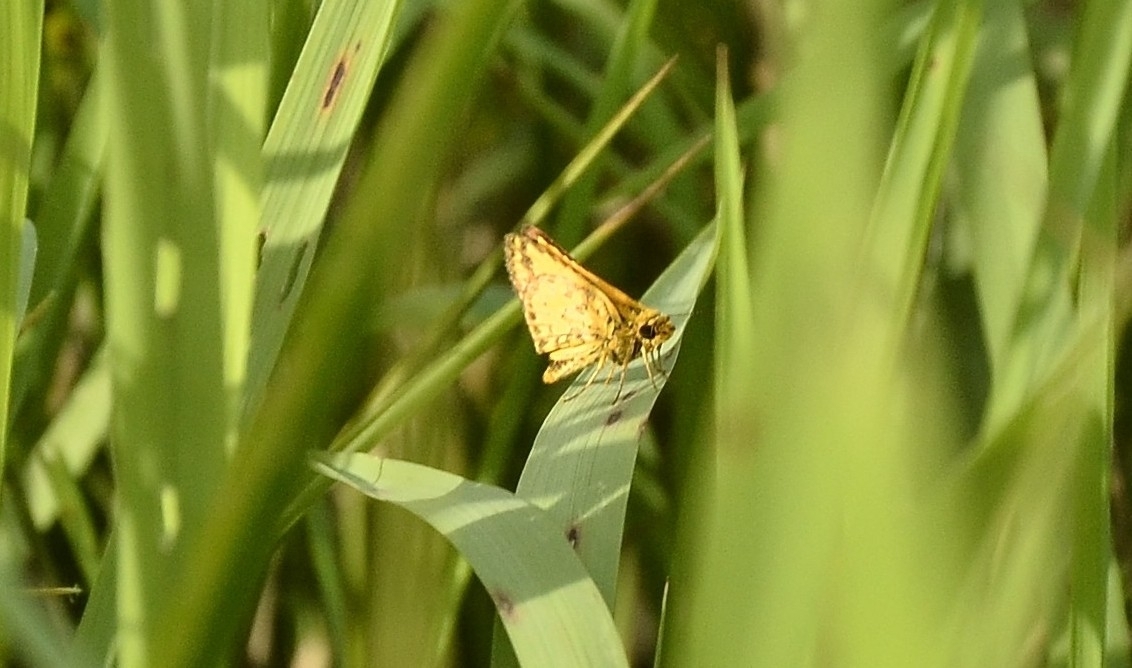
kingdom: Animalia
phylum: Arthropoda
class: Insecta
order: Lepidoptera
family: Hesperiidae
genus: Ampittia
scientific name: Ampittia dioscorides
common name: Common bush hopper
